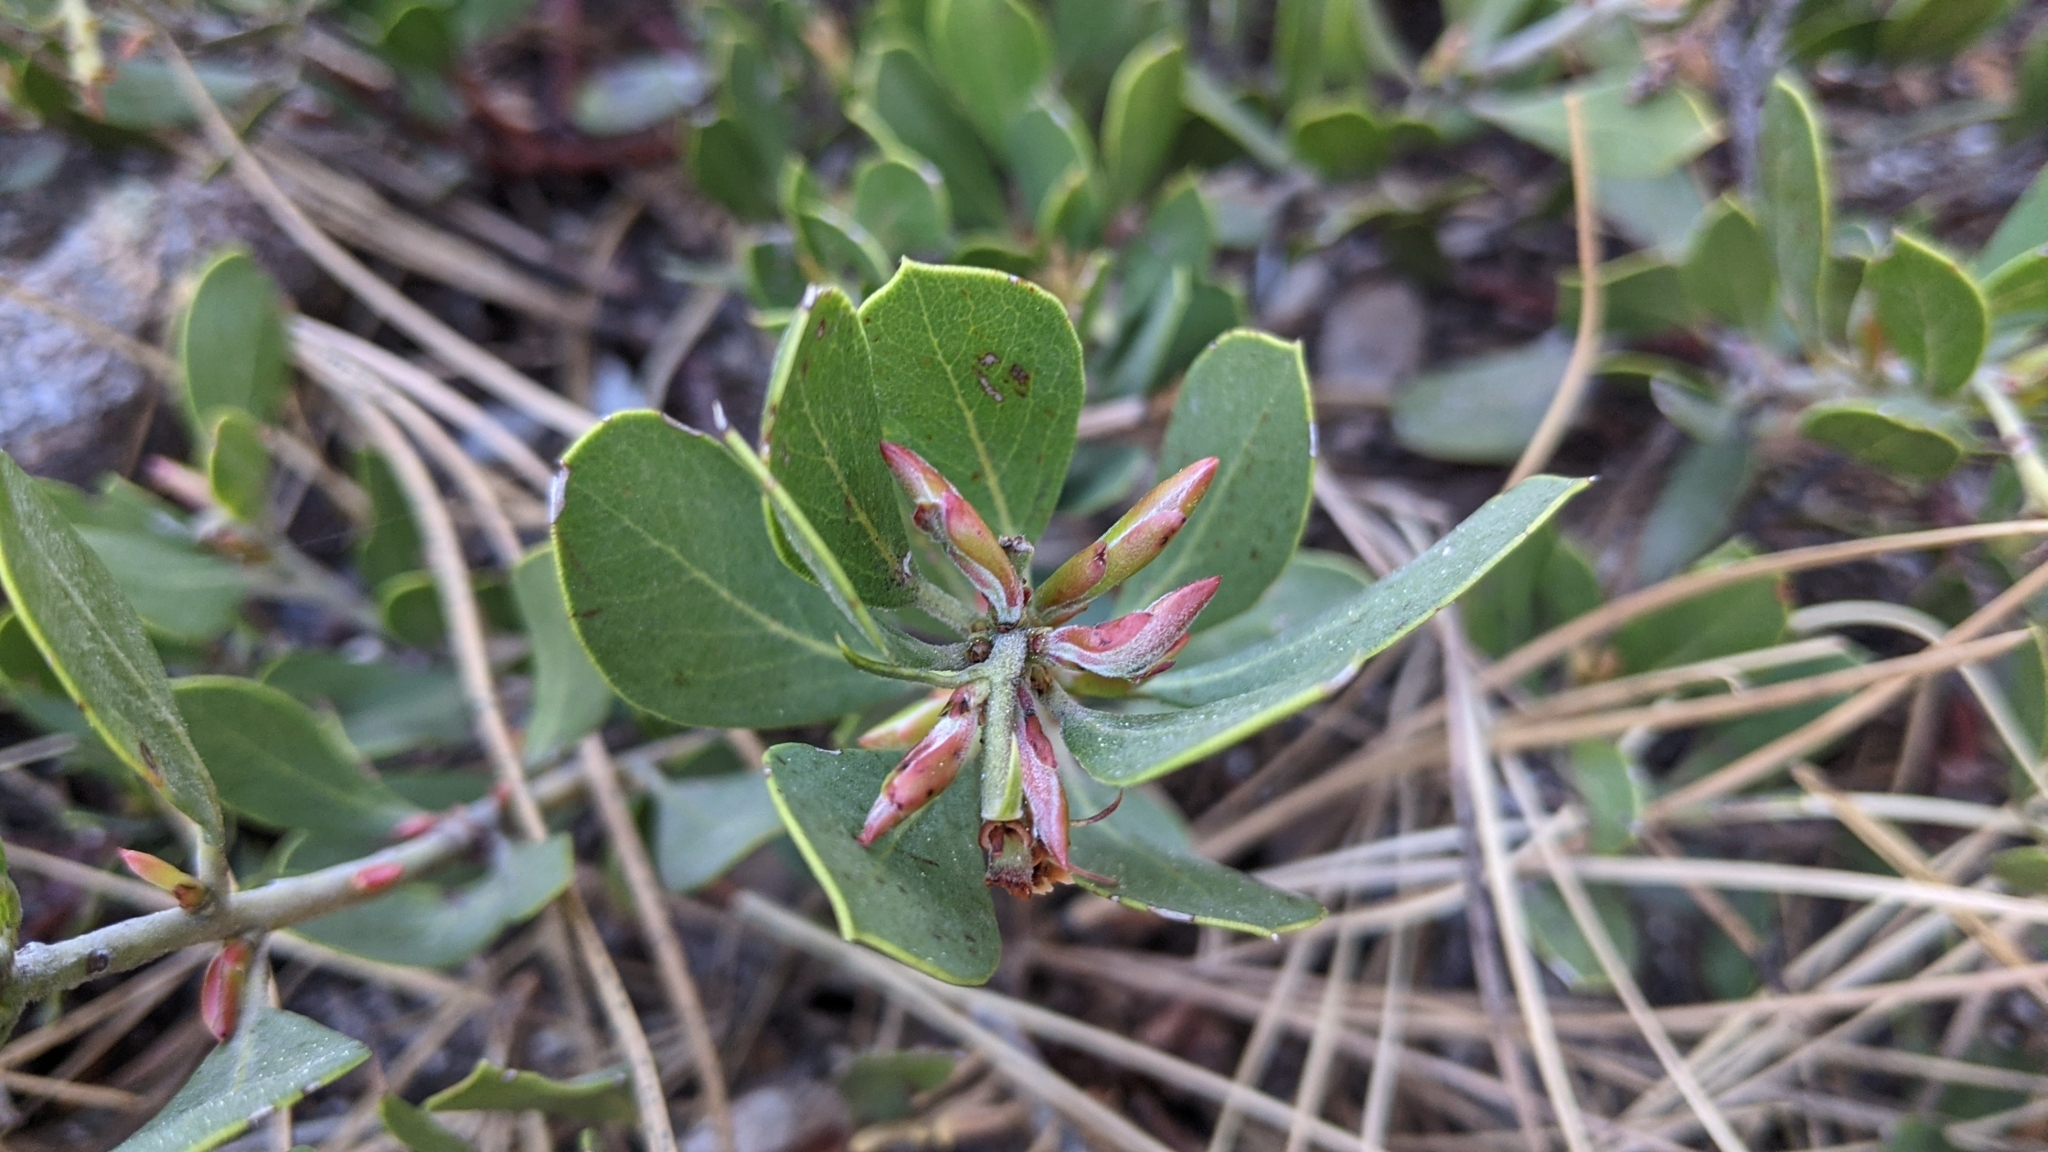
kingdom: Plantae
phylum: Tracheophyta
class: Magnoliopsida
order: Ericales
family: Ericaceae
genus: Arctostaphylos
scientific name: Arctostaphylos nevadensis
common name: Pinemat manzanita
